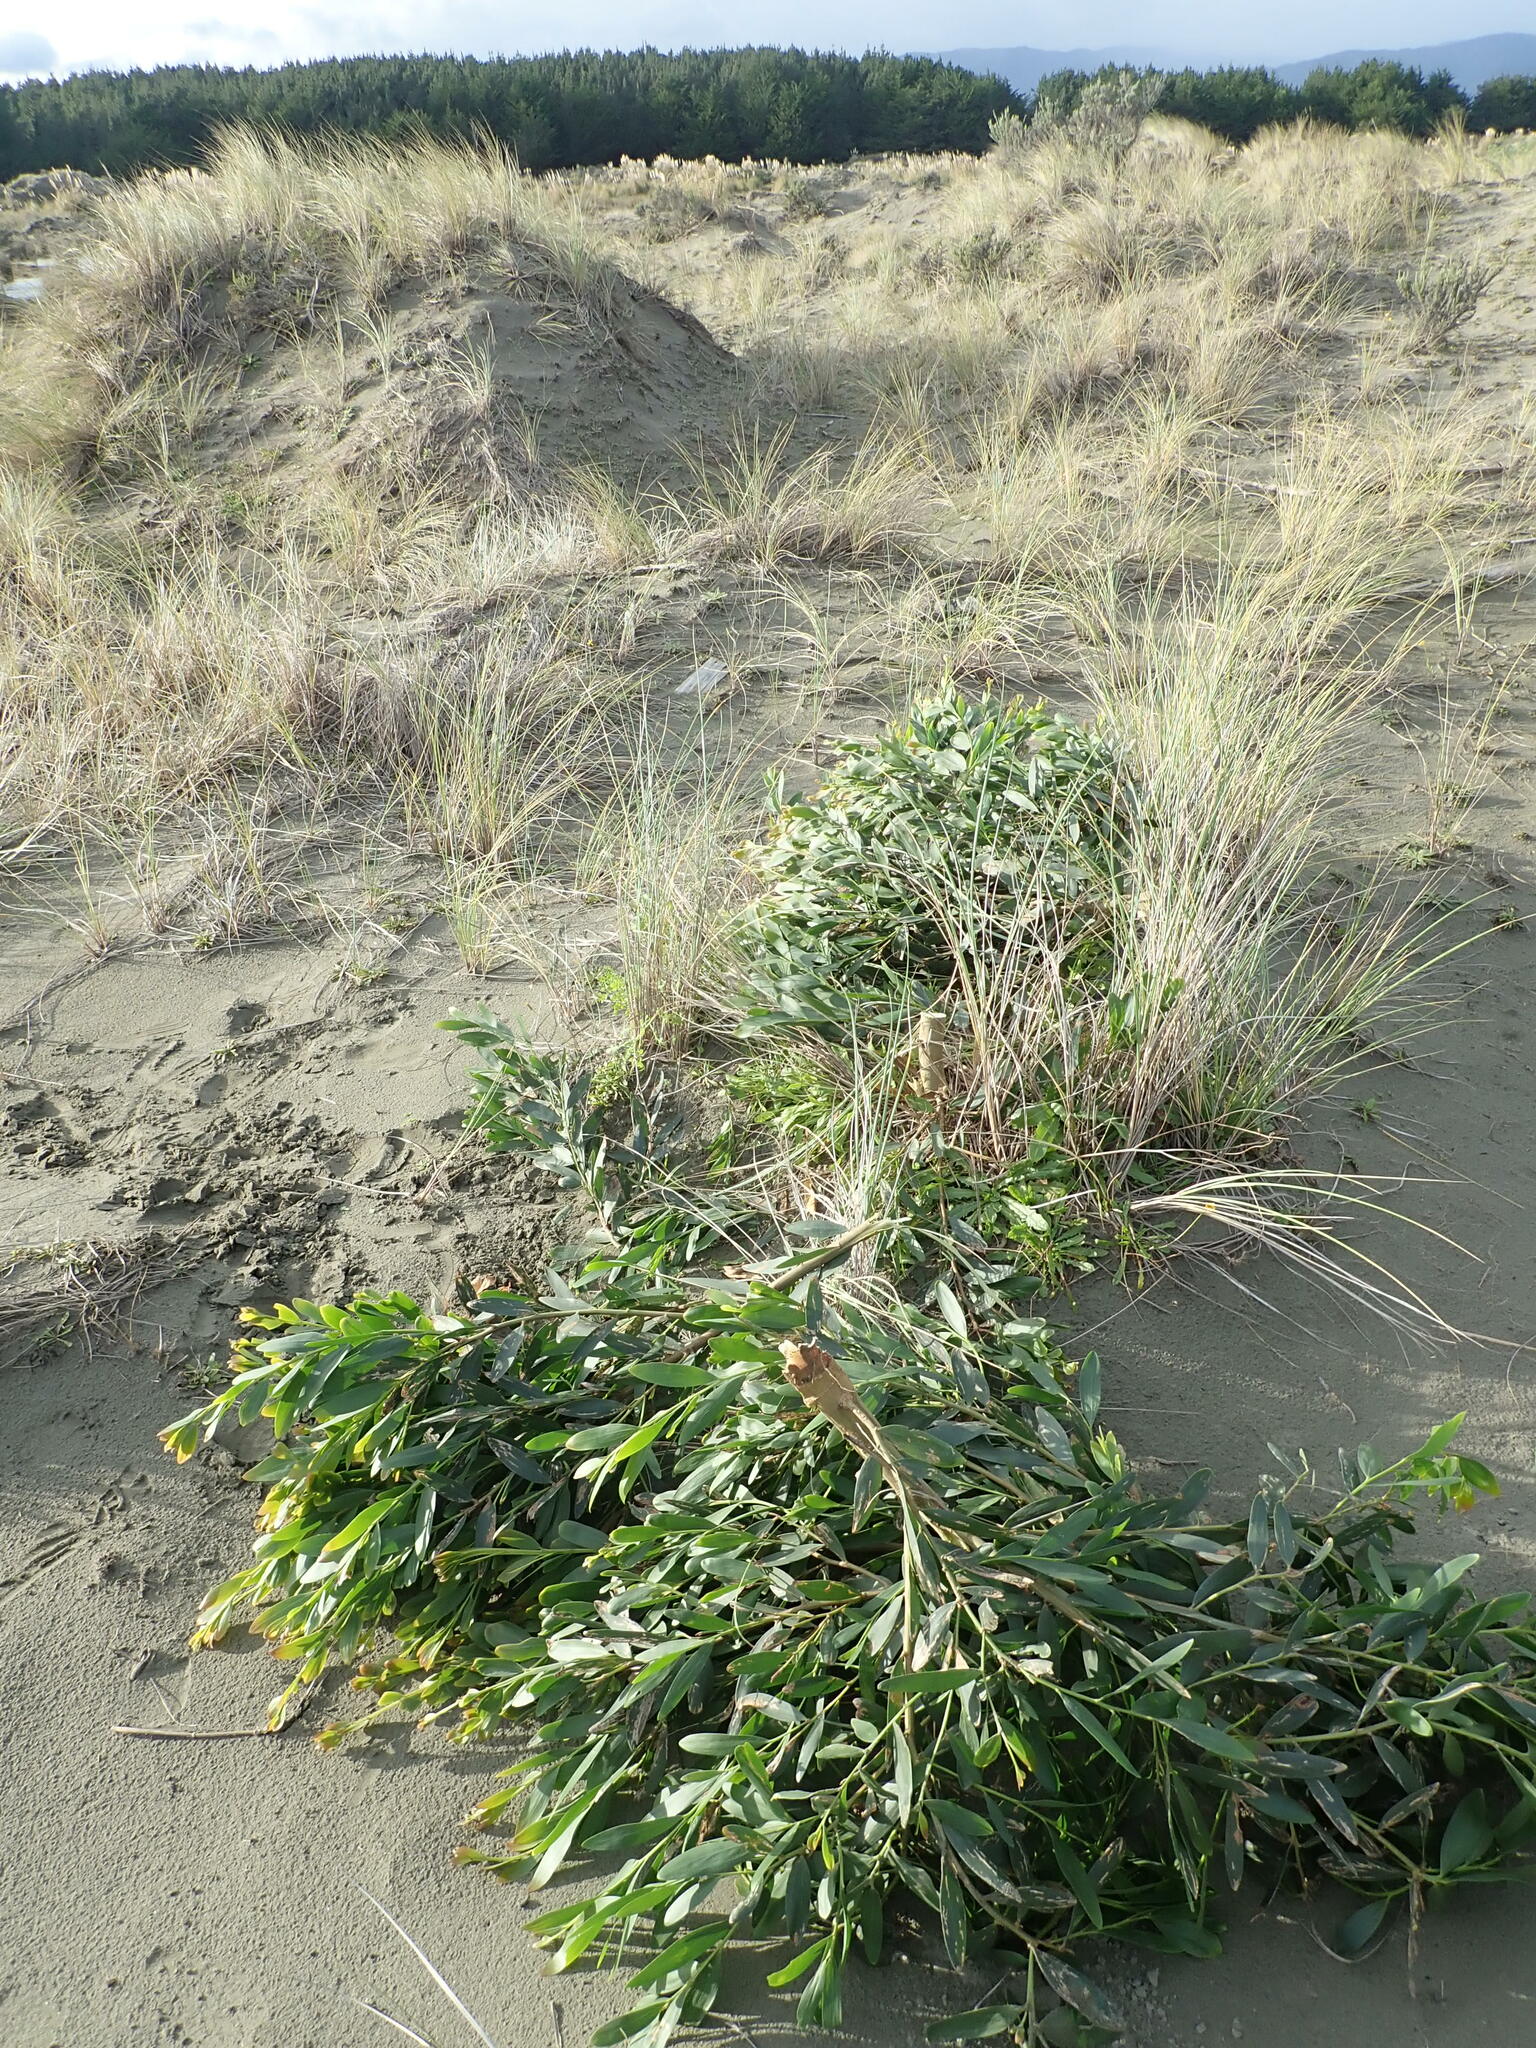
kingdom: Plantae
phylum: Tracheophyta
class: Magnoliopsida
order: Fabales
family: Fabaceae
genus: Acacia
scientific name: Acacia longifolia
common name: Sydney golden wattle
